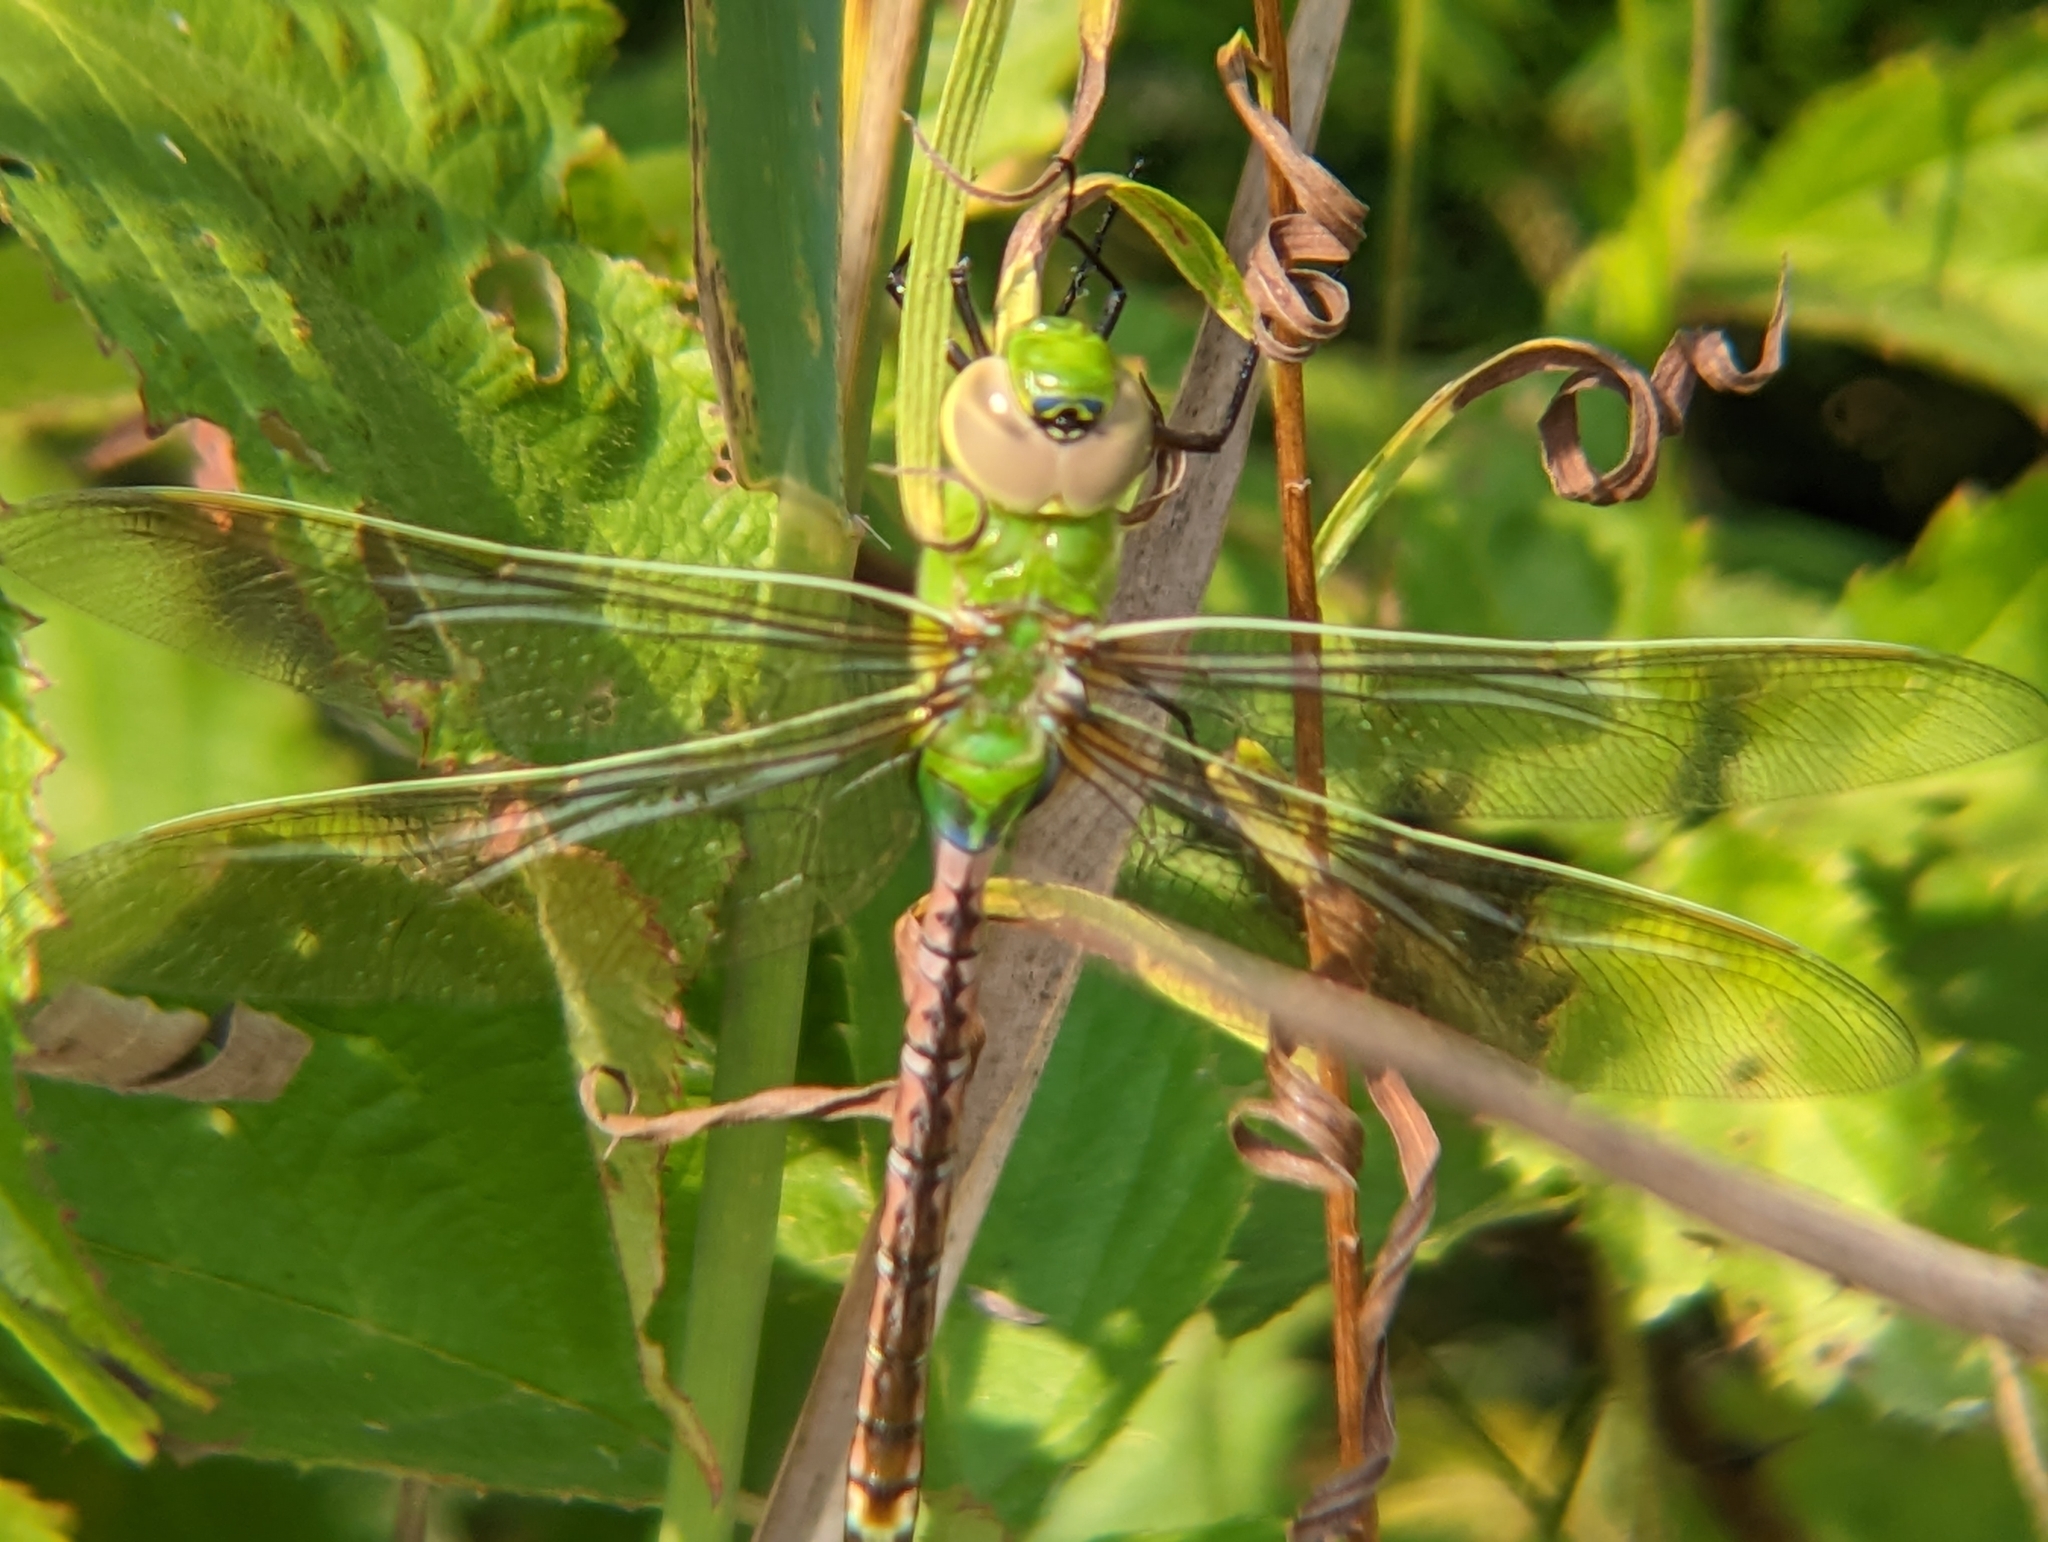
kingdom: Animalia
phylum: Arthropoda
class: Insecta
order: Odonata
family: Aeshnidae
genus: Anax
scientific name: Anax junius
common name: Common green darner
